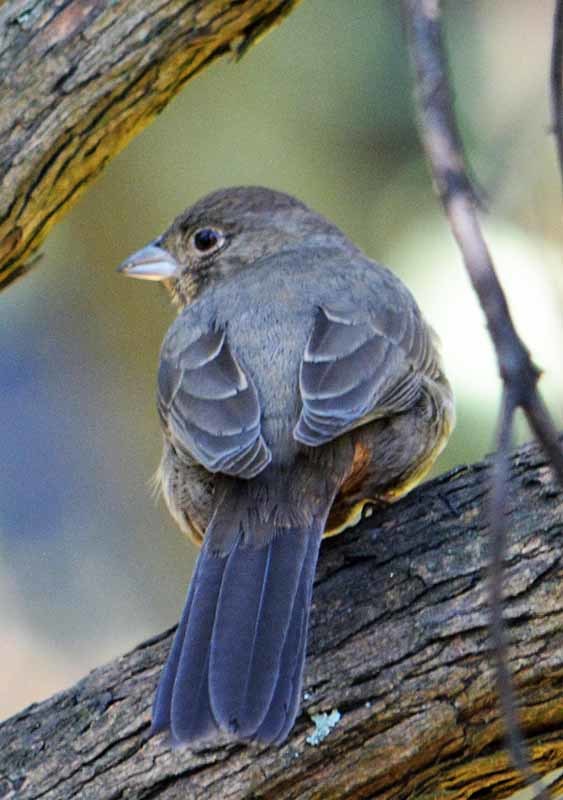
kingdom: Animalia
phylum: Chordata
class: Aves
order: Passeriformes
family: Passerellidae
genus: Melozone
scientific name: Melozone fusca
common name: Canyon towhee
